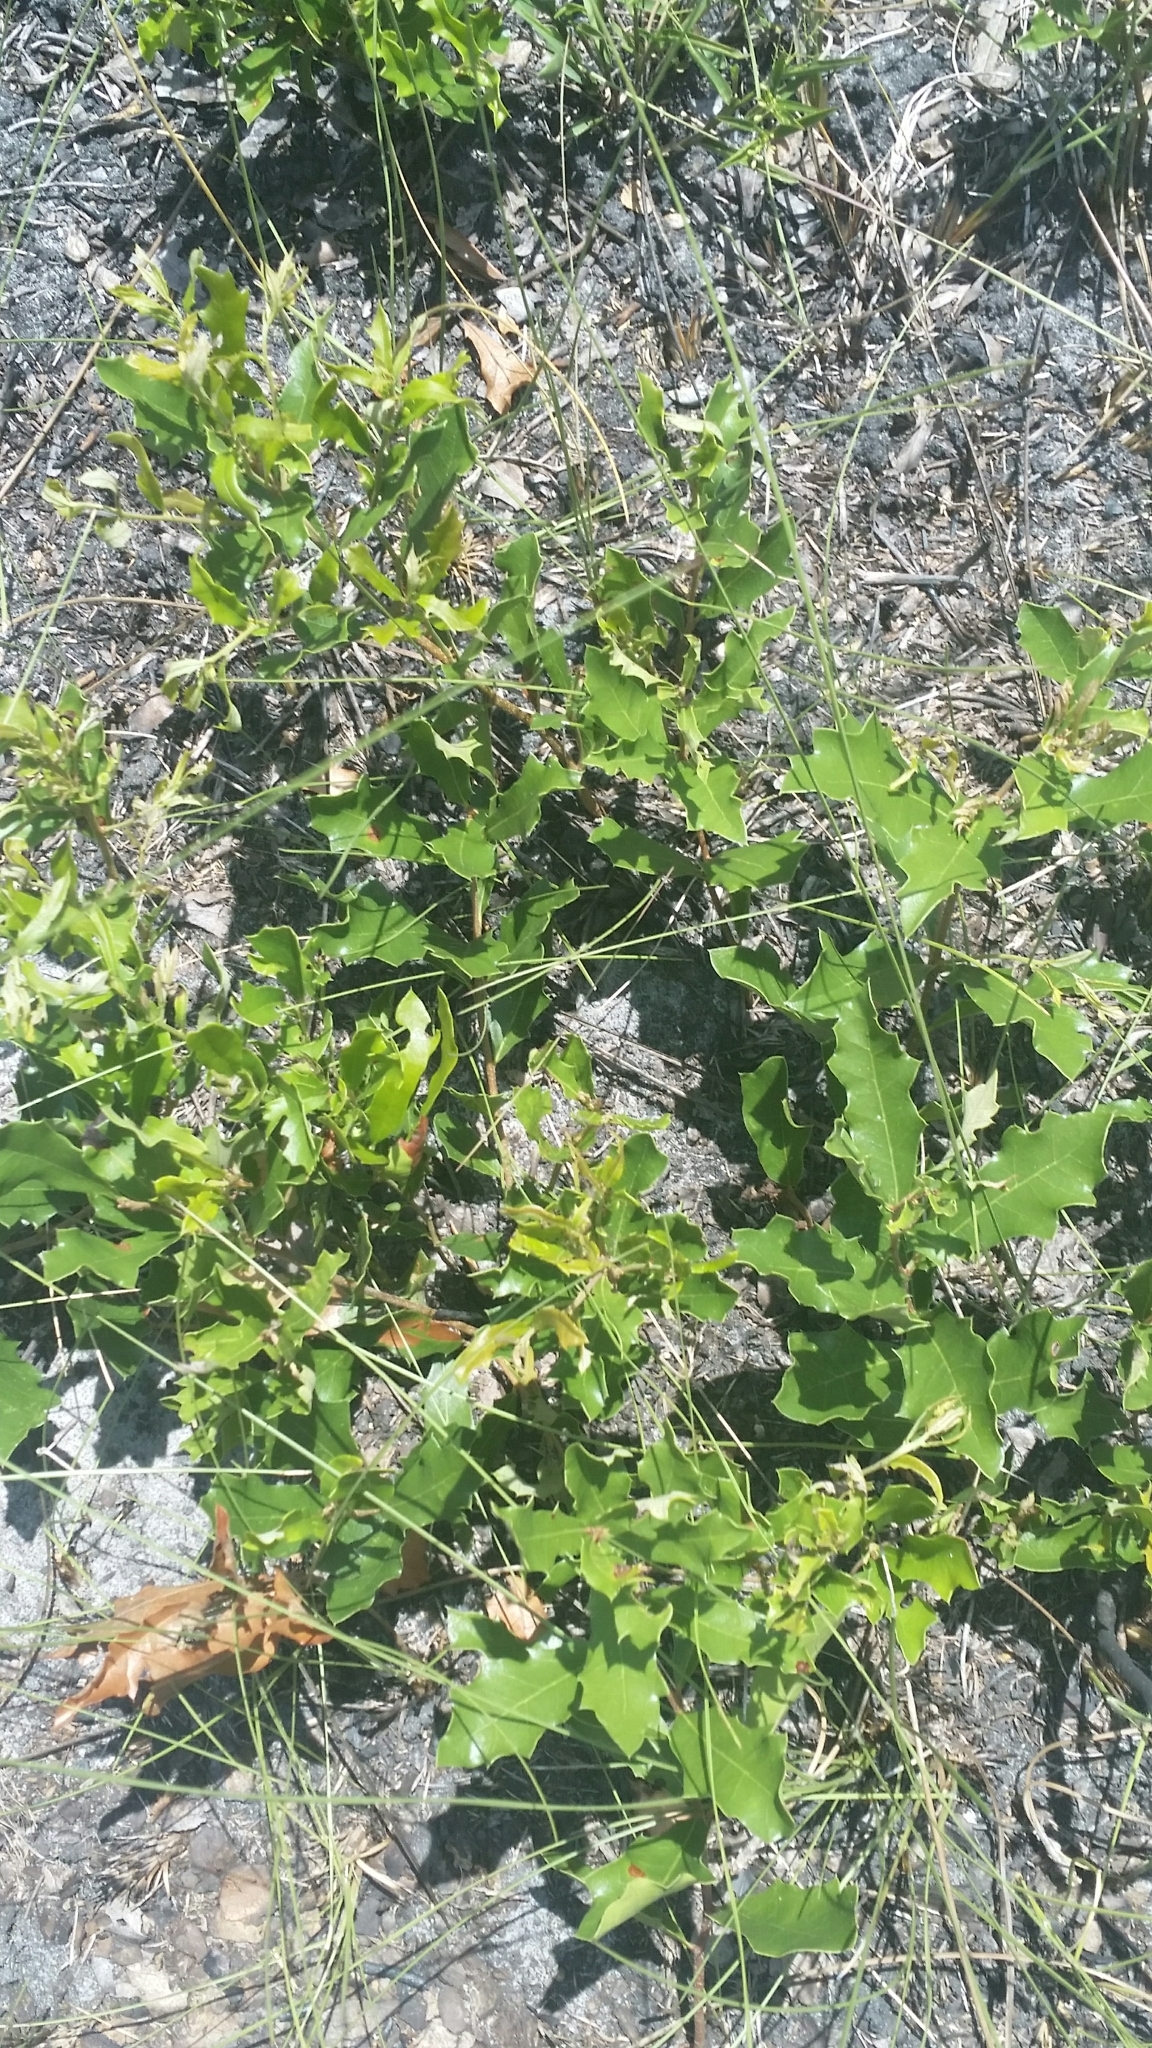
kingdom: Plantae
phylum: Tracheophyta
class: Magnoliopsida
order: Fagales
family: Fagaceae
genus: Quercus
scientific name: Quercus minima
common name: Dwarf live oak
